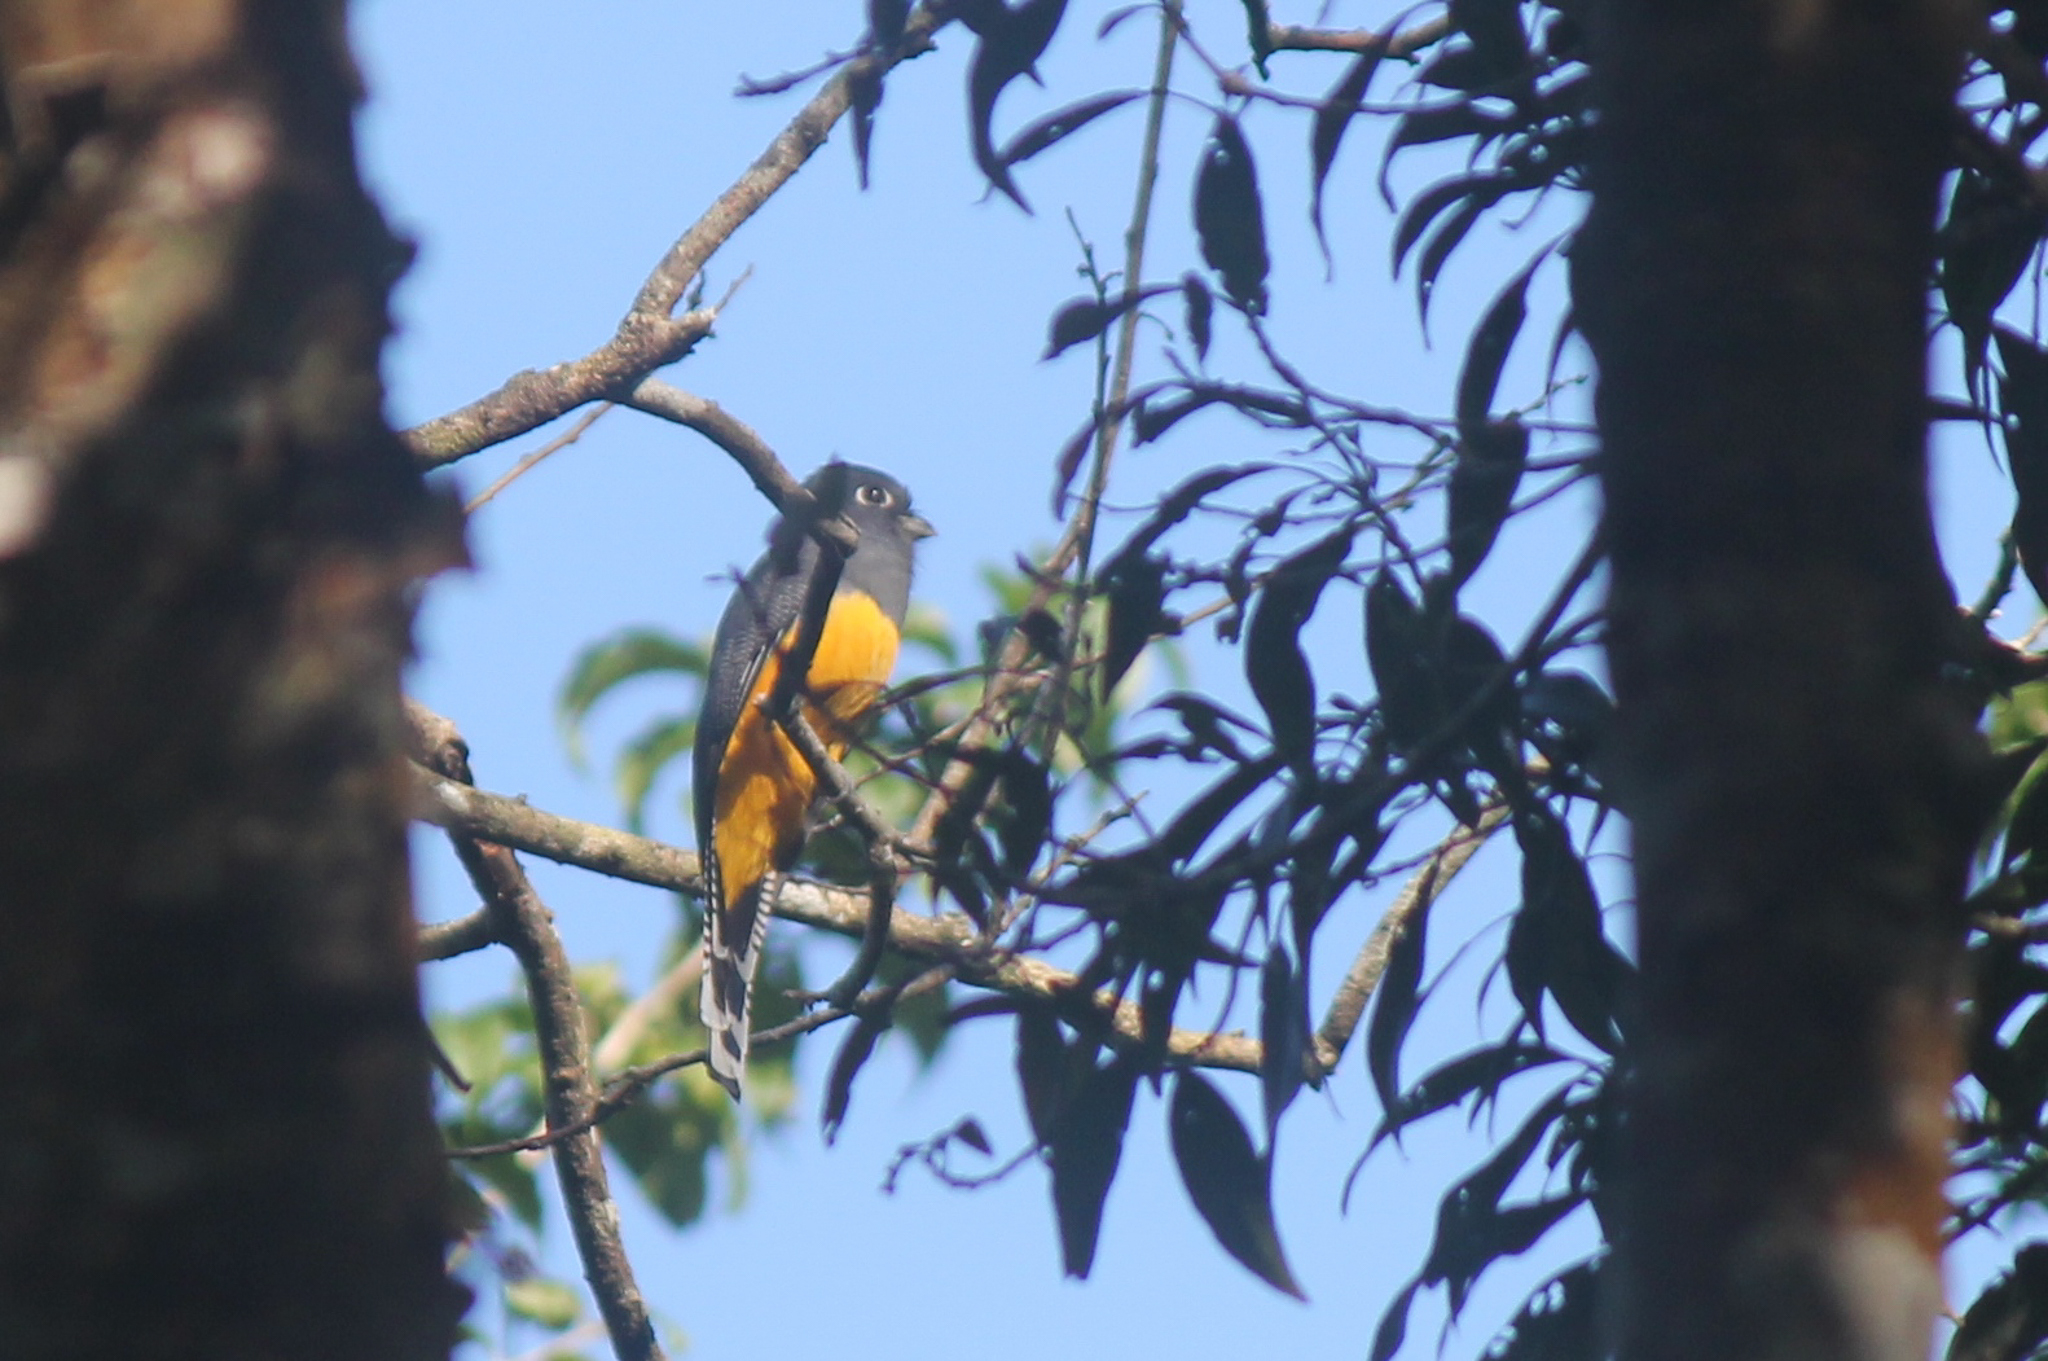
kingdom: Animalia
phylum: Chordata
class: Aves
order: Trogoniformes
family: Trogonidae
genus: Trogon
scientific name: Trogon caligatus
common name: Gartered trogon
